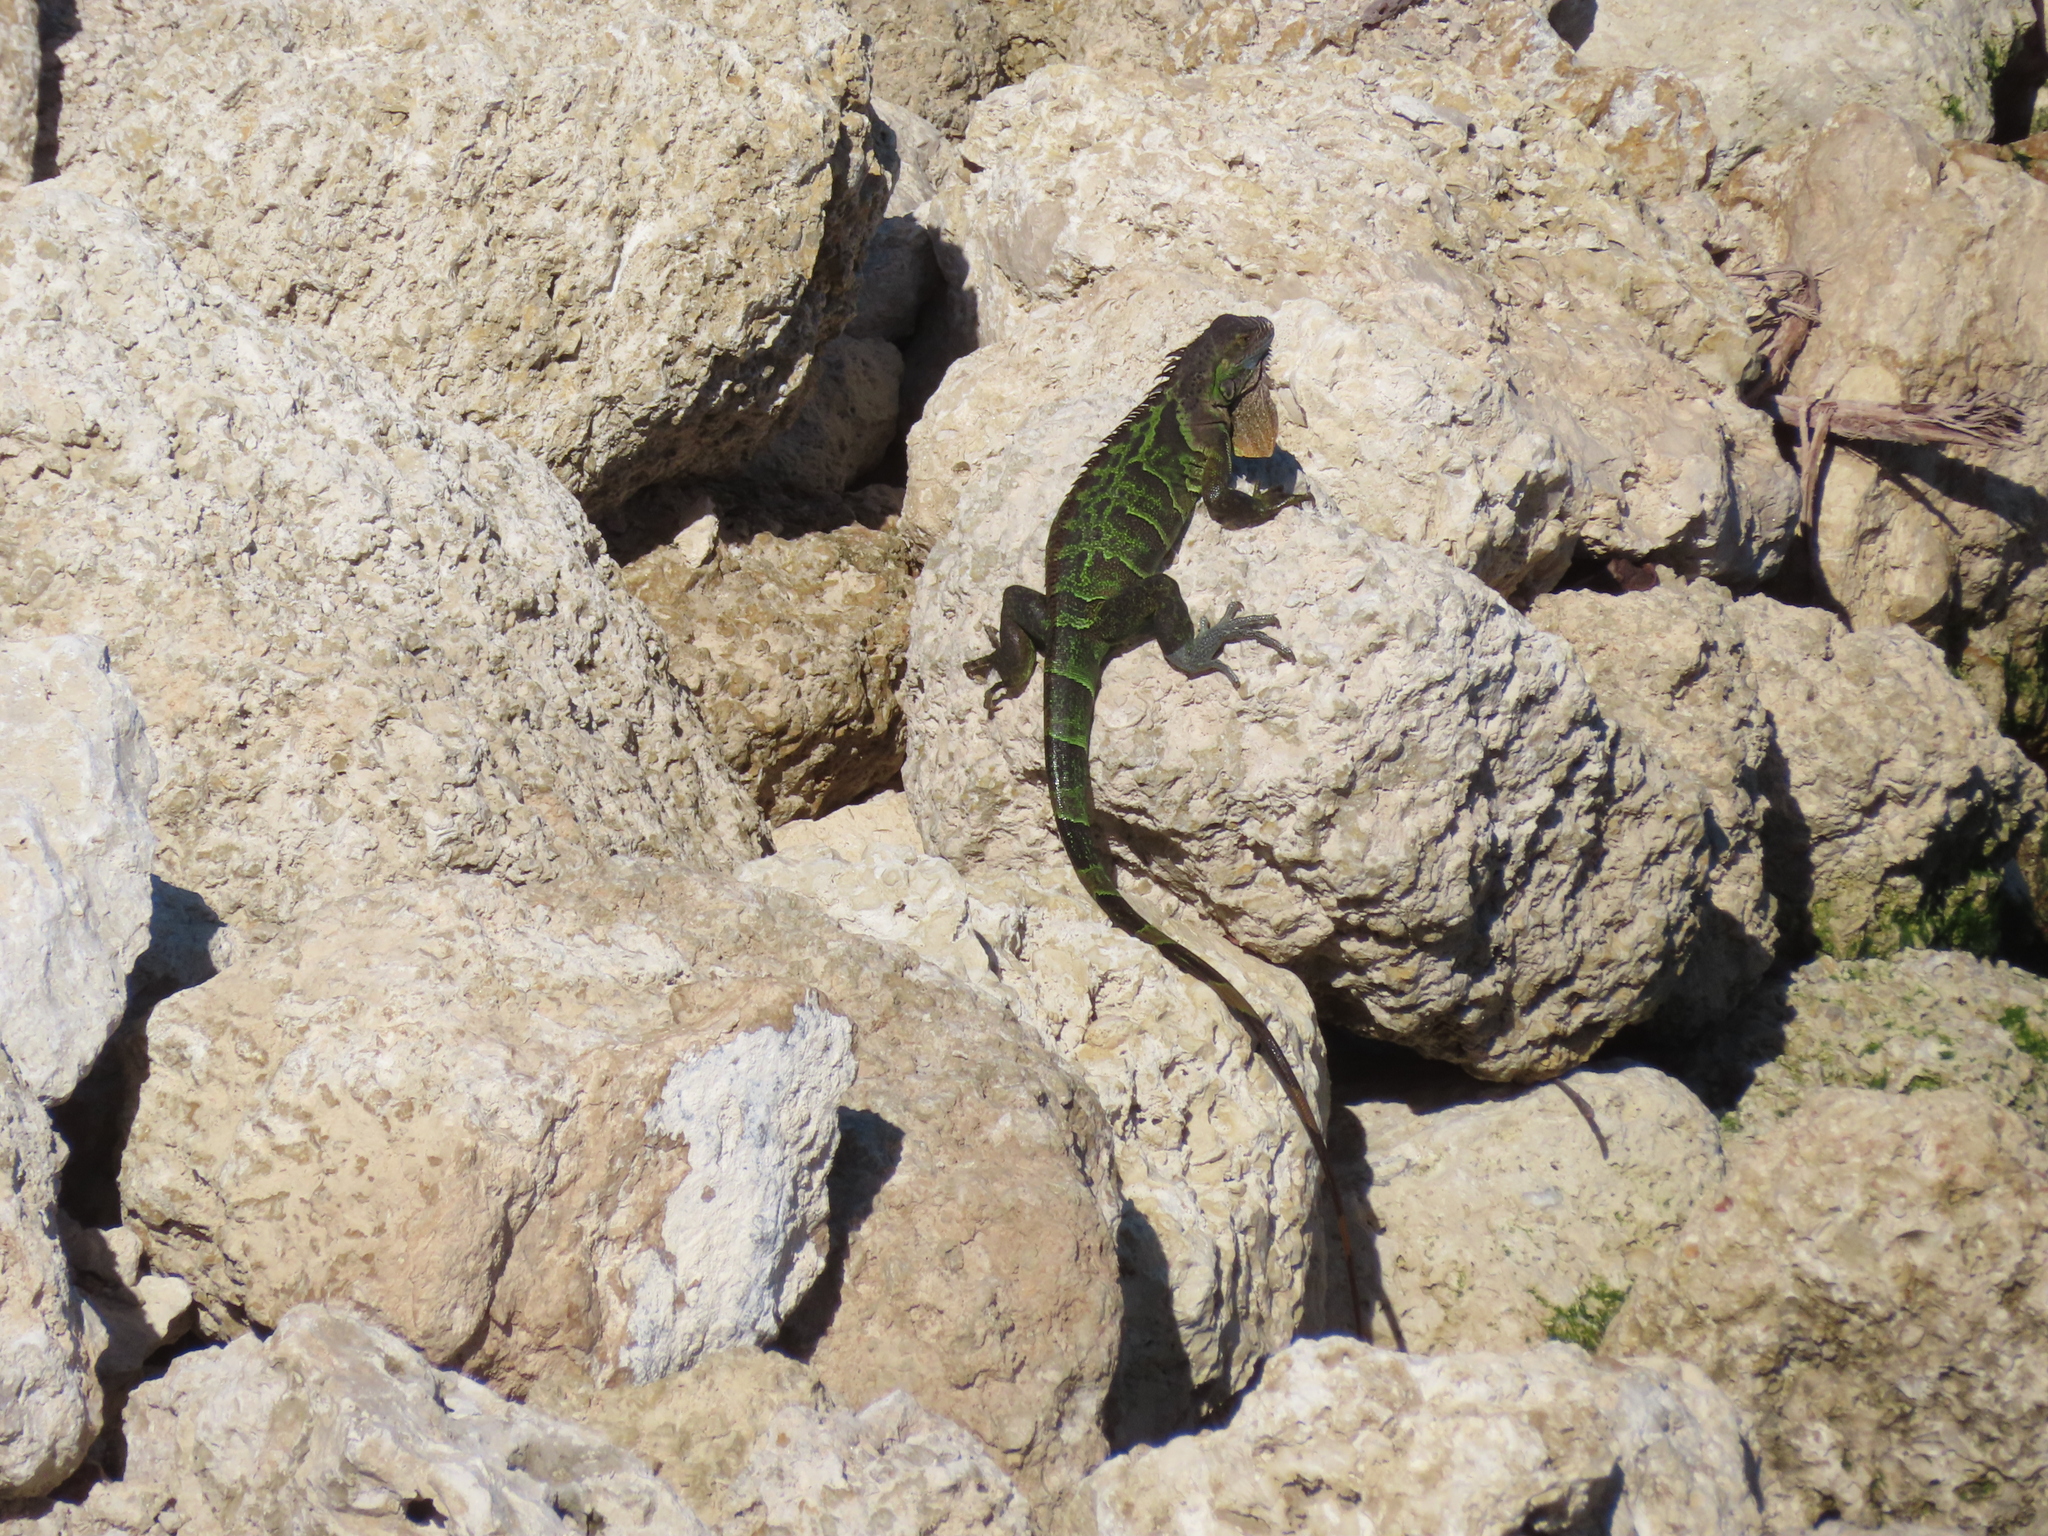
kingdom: Animalia
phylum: Chordata
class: Squamata
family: Iguanidae
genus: Iguana
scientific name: Iguana iguana
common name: Green iguana
